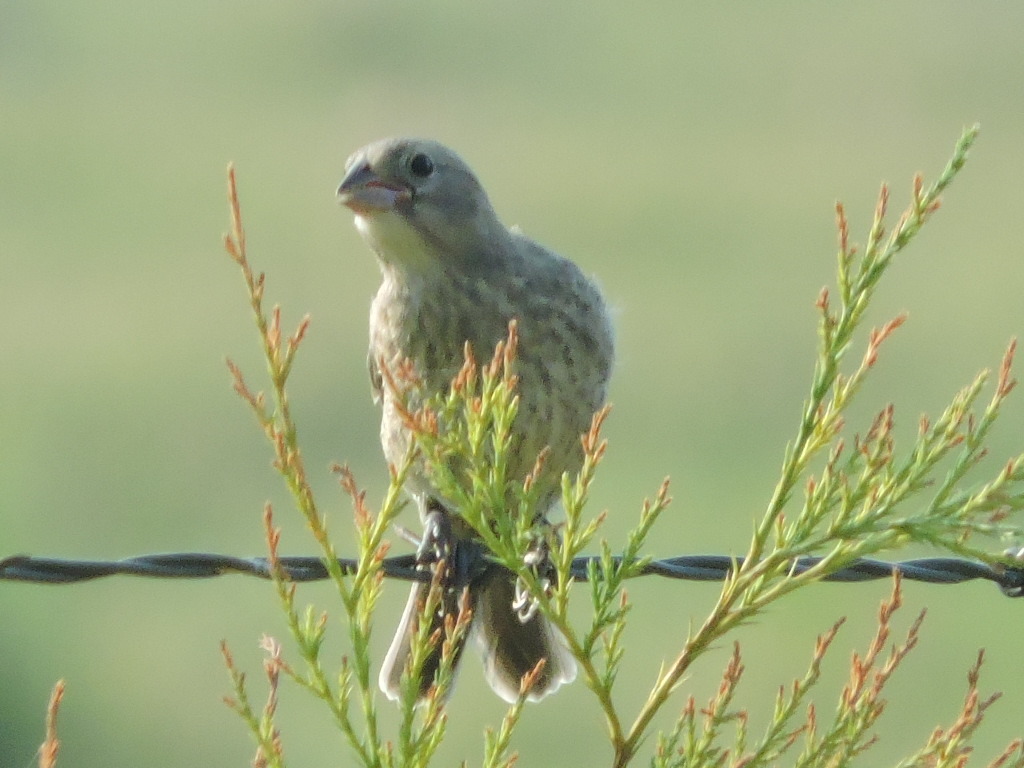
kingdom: Animalia
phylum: Chordata
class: Aves
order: Passeriformes
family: Icteridae
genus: Molothrus
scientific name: Molothrus ater
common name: Brown-headed cowbird
